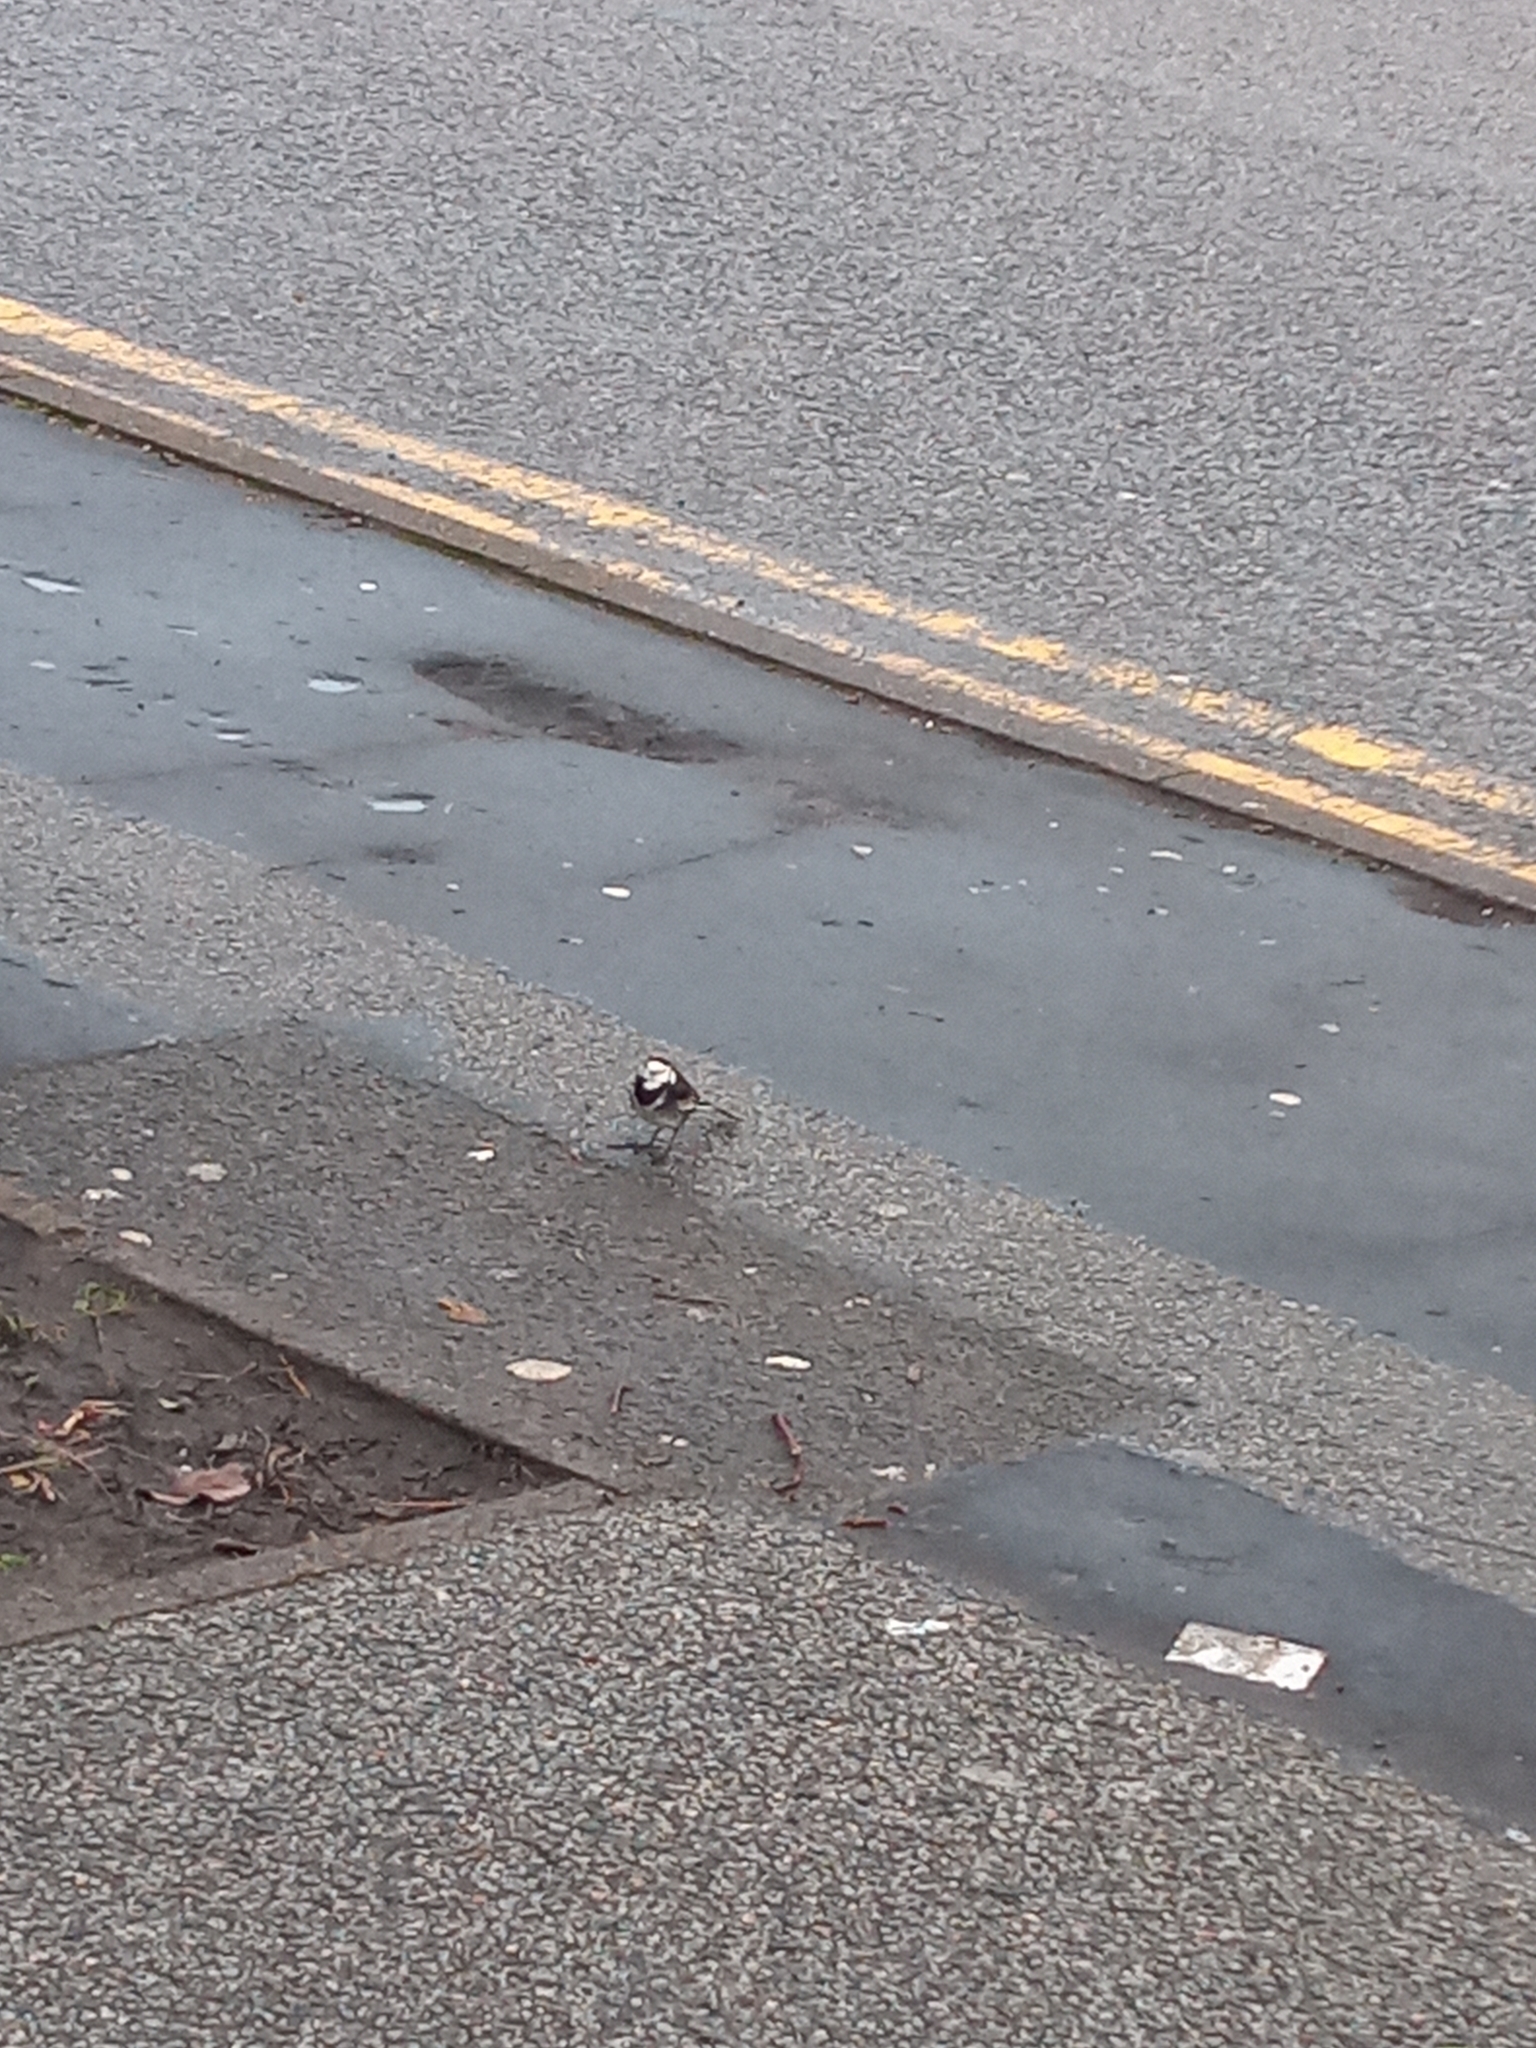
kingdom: Animalia
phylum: Chordata
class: Aves
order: Passeriformes
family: Motacillidae
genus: Motacilla
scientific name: Motacilla alba
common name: White wagtail
